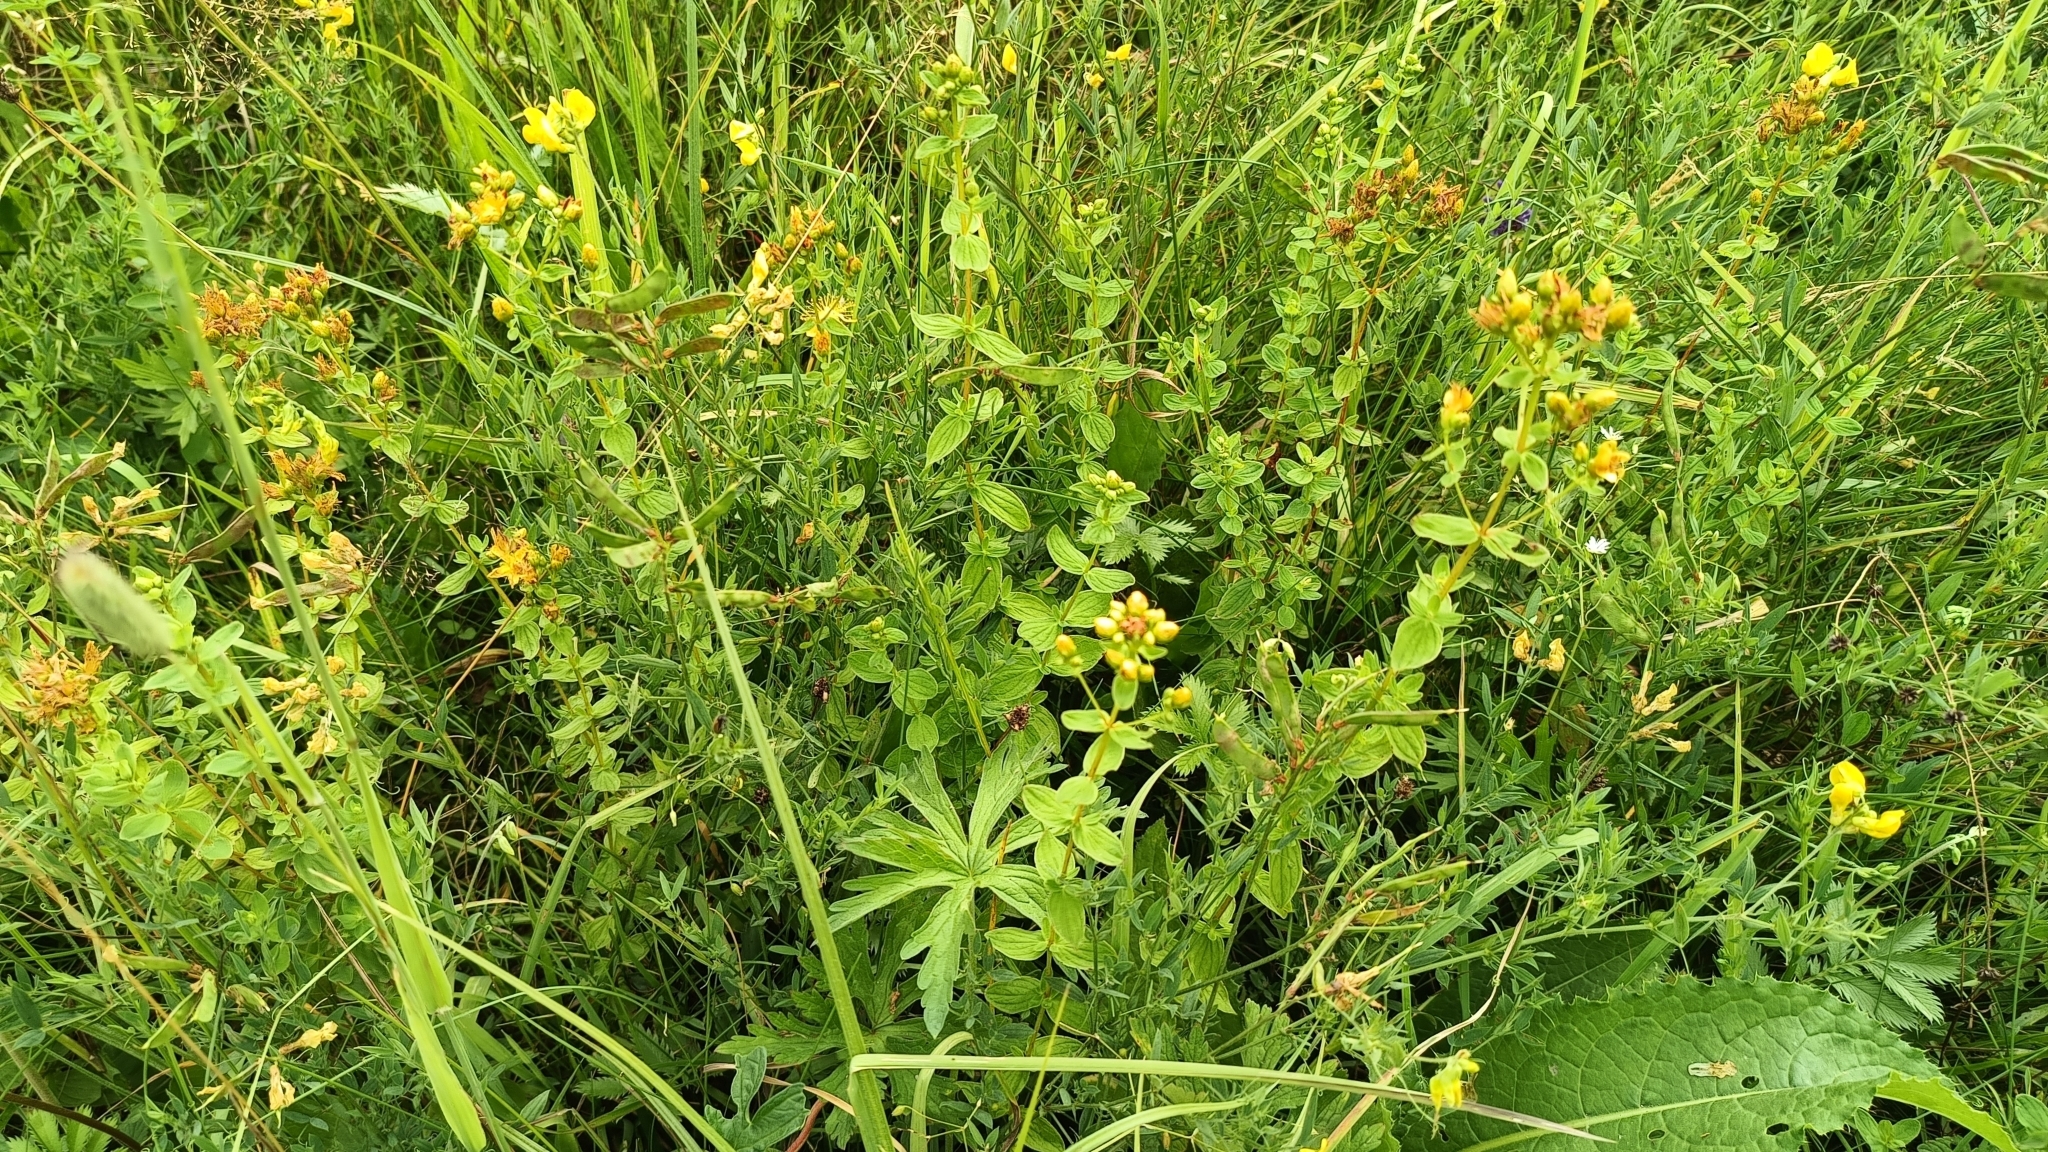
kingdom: Plantae
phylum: Tracheophyta
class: Magnoliopsida
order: Malpighiales
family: Hypericaceae
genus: Hypericum
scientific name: Hypericum maculatum
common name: Imperforate st. john's-wort
